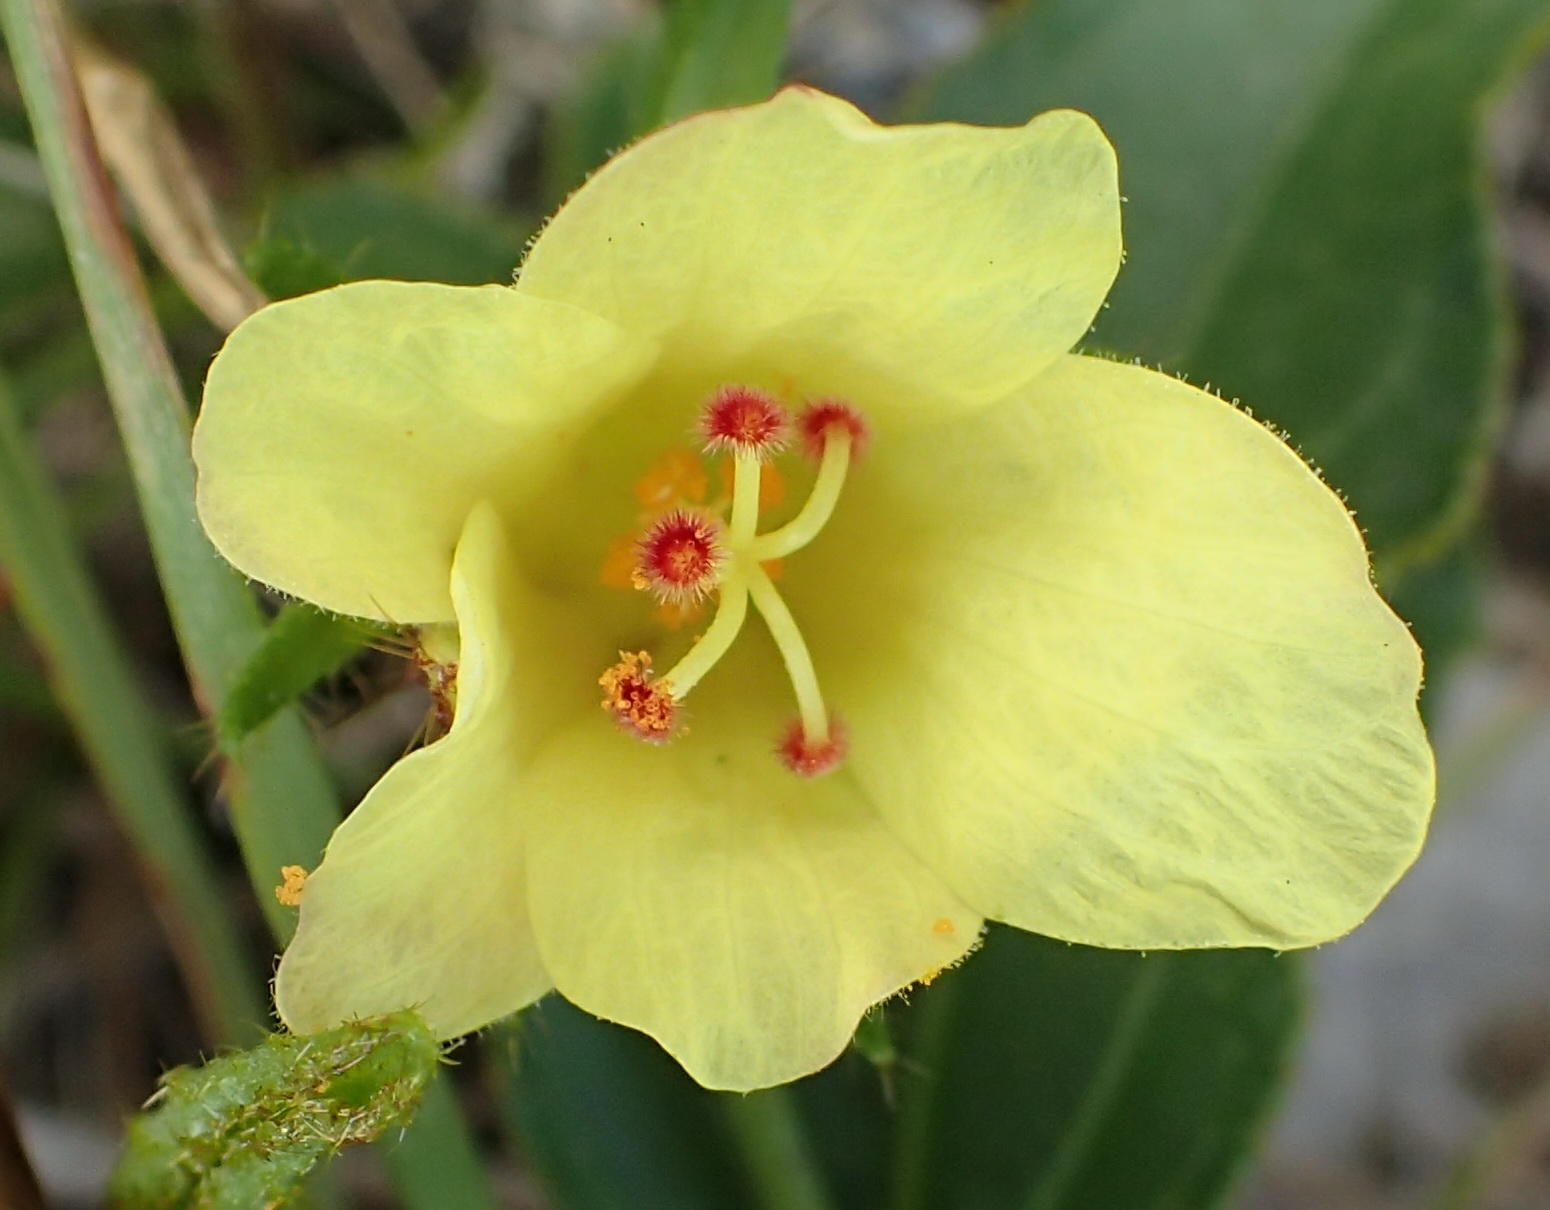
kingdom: Plantae
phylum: Tracheophyta
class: Magnoliopsida
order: Malvales
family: Malvaceae
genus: Hibiscus
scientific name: Hibiscus aethiopicus
